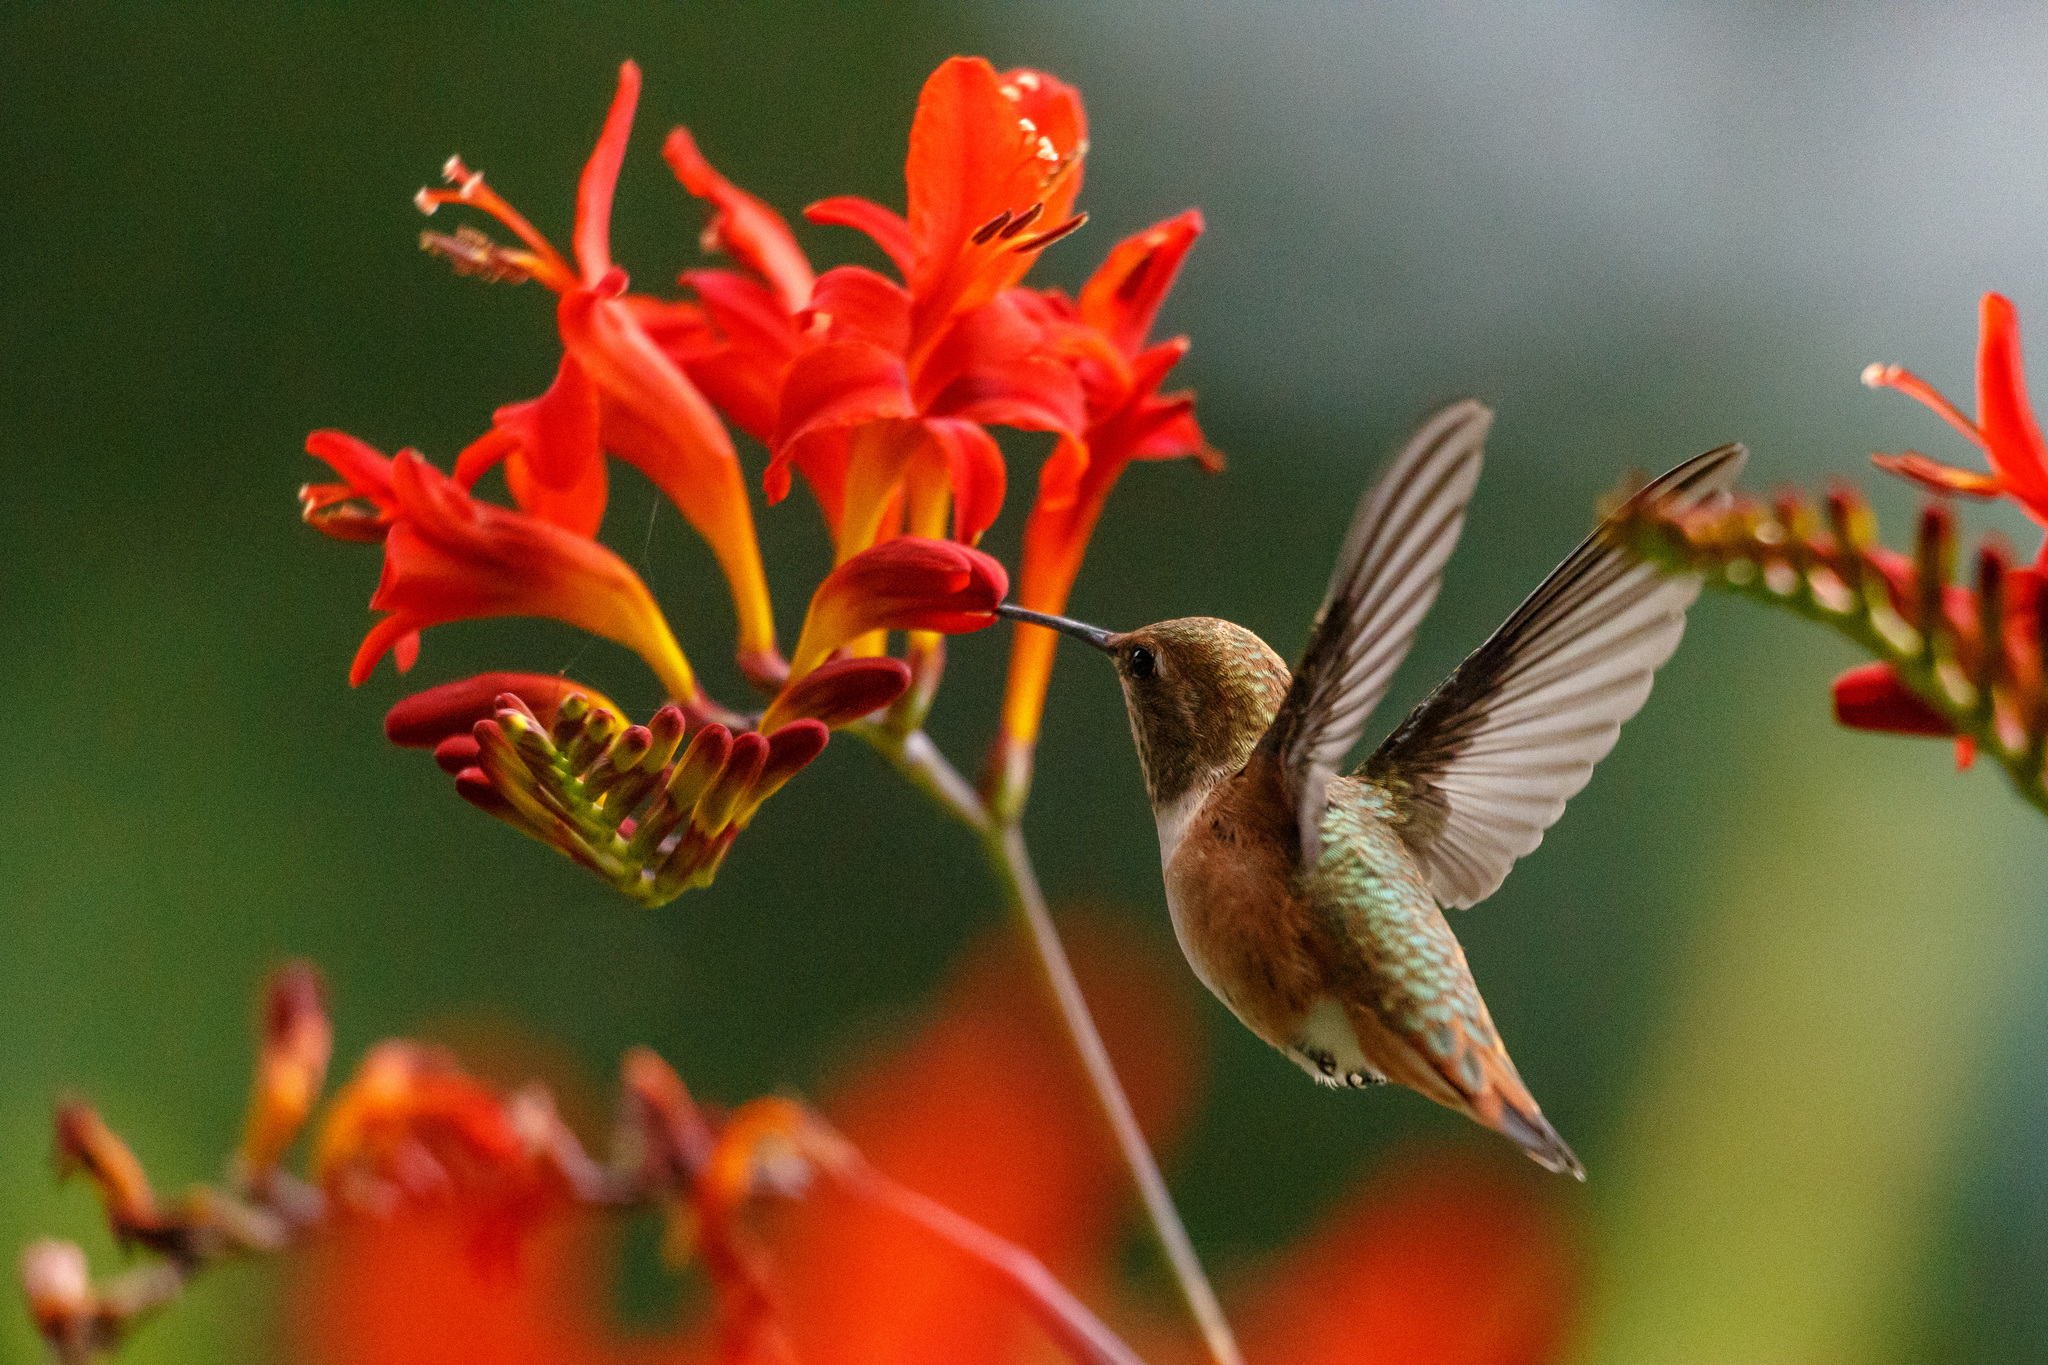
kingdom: Animalia
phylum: Chordata
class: Aves
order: Apodiformes
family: Trochilidae
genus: Selasphorus
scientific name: Selasphorus rufus
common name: Rufous hummingbird
